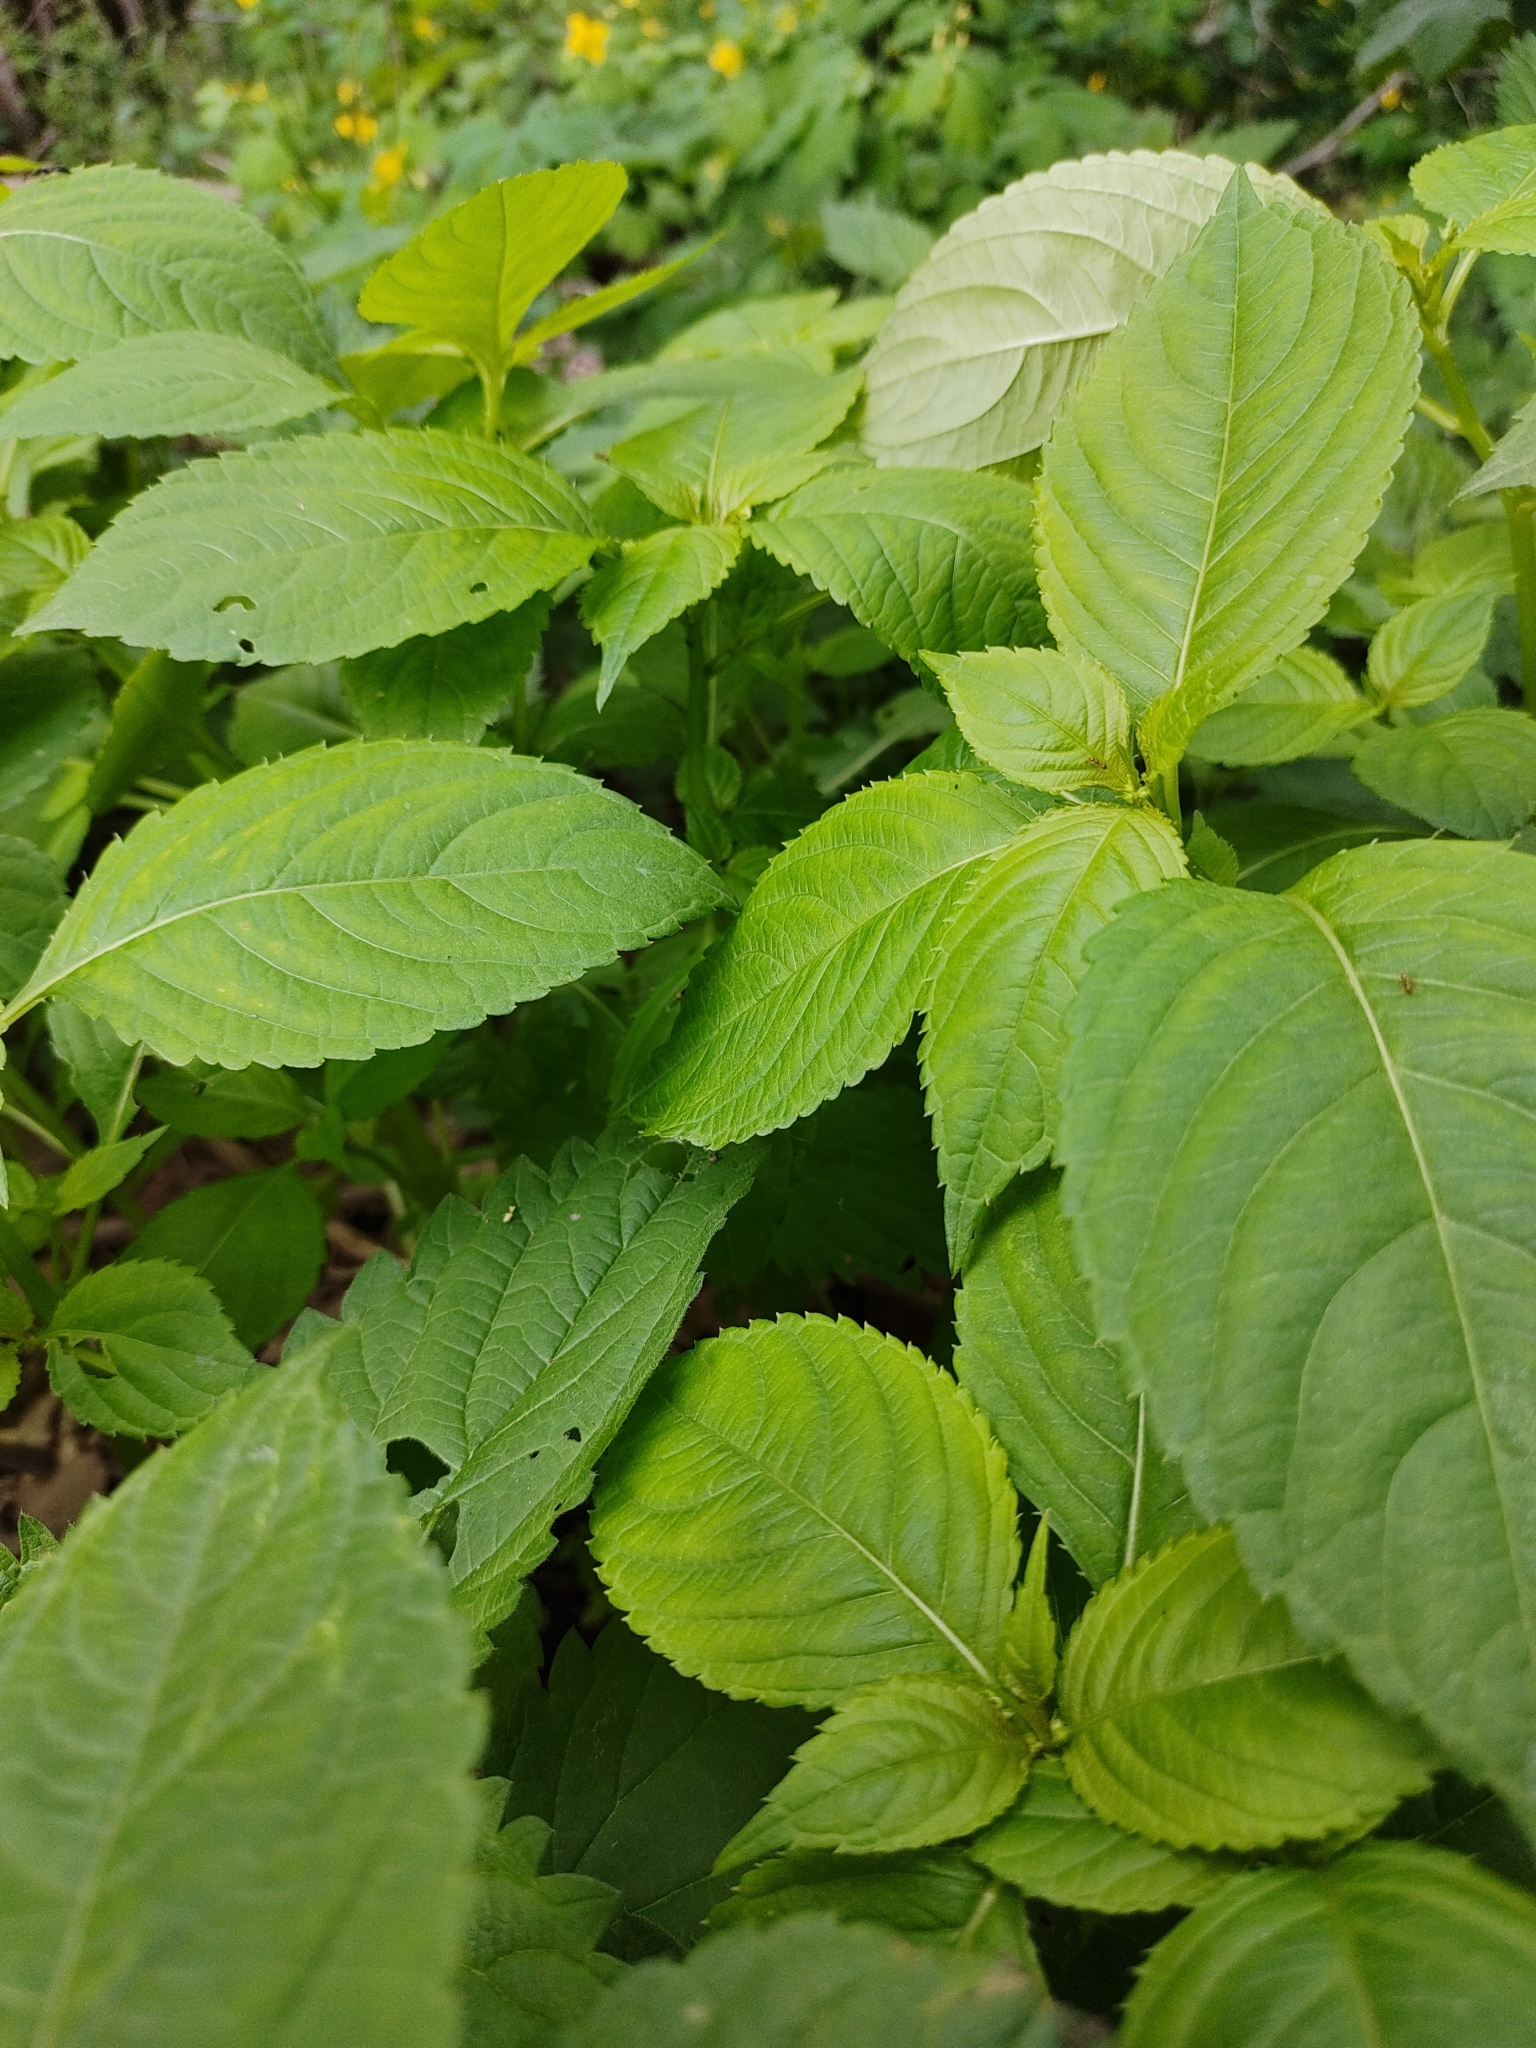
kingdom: Plantae
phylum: Tracheophyta
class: Magnoliopsida
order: Ericales
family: Balsaminaceae
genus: Impatiens
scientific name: Impatiens parviflora
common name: Small balsam
